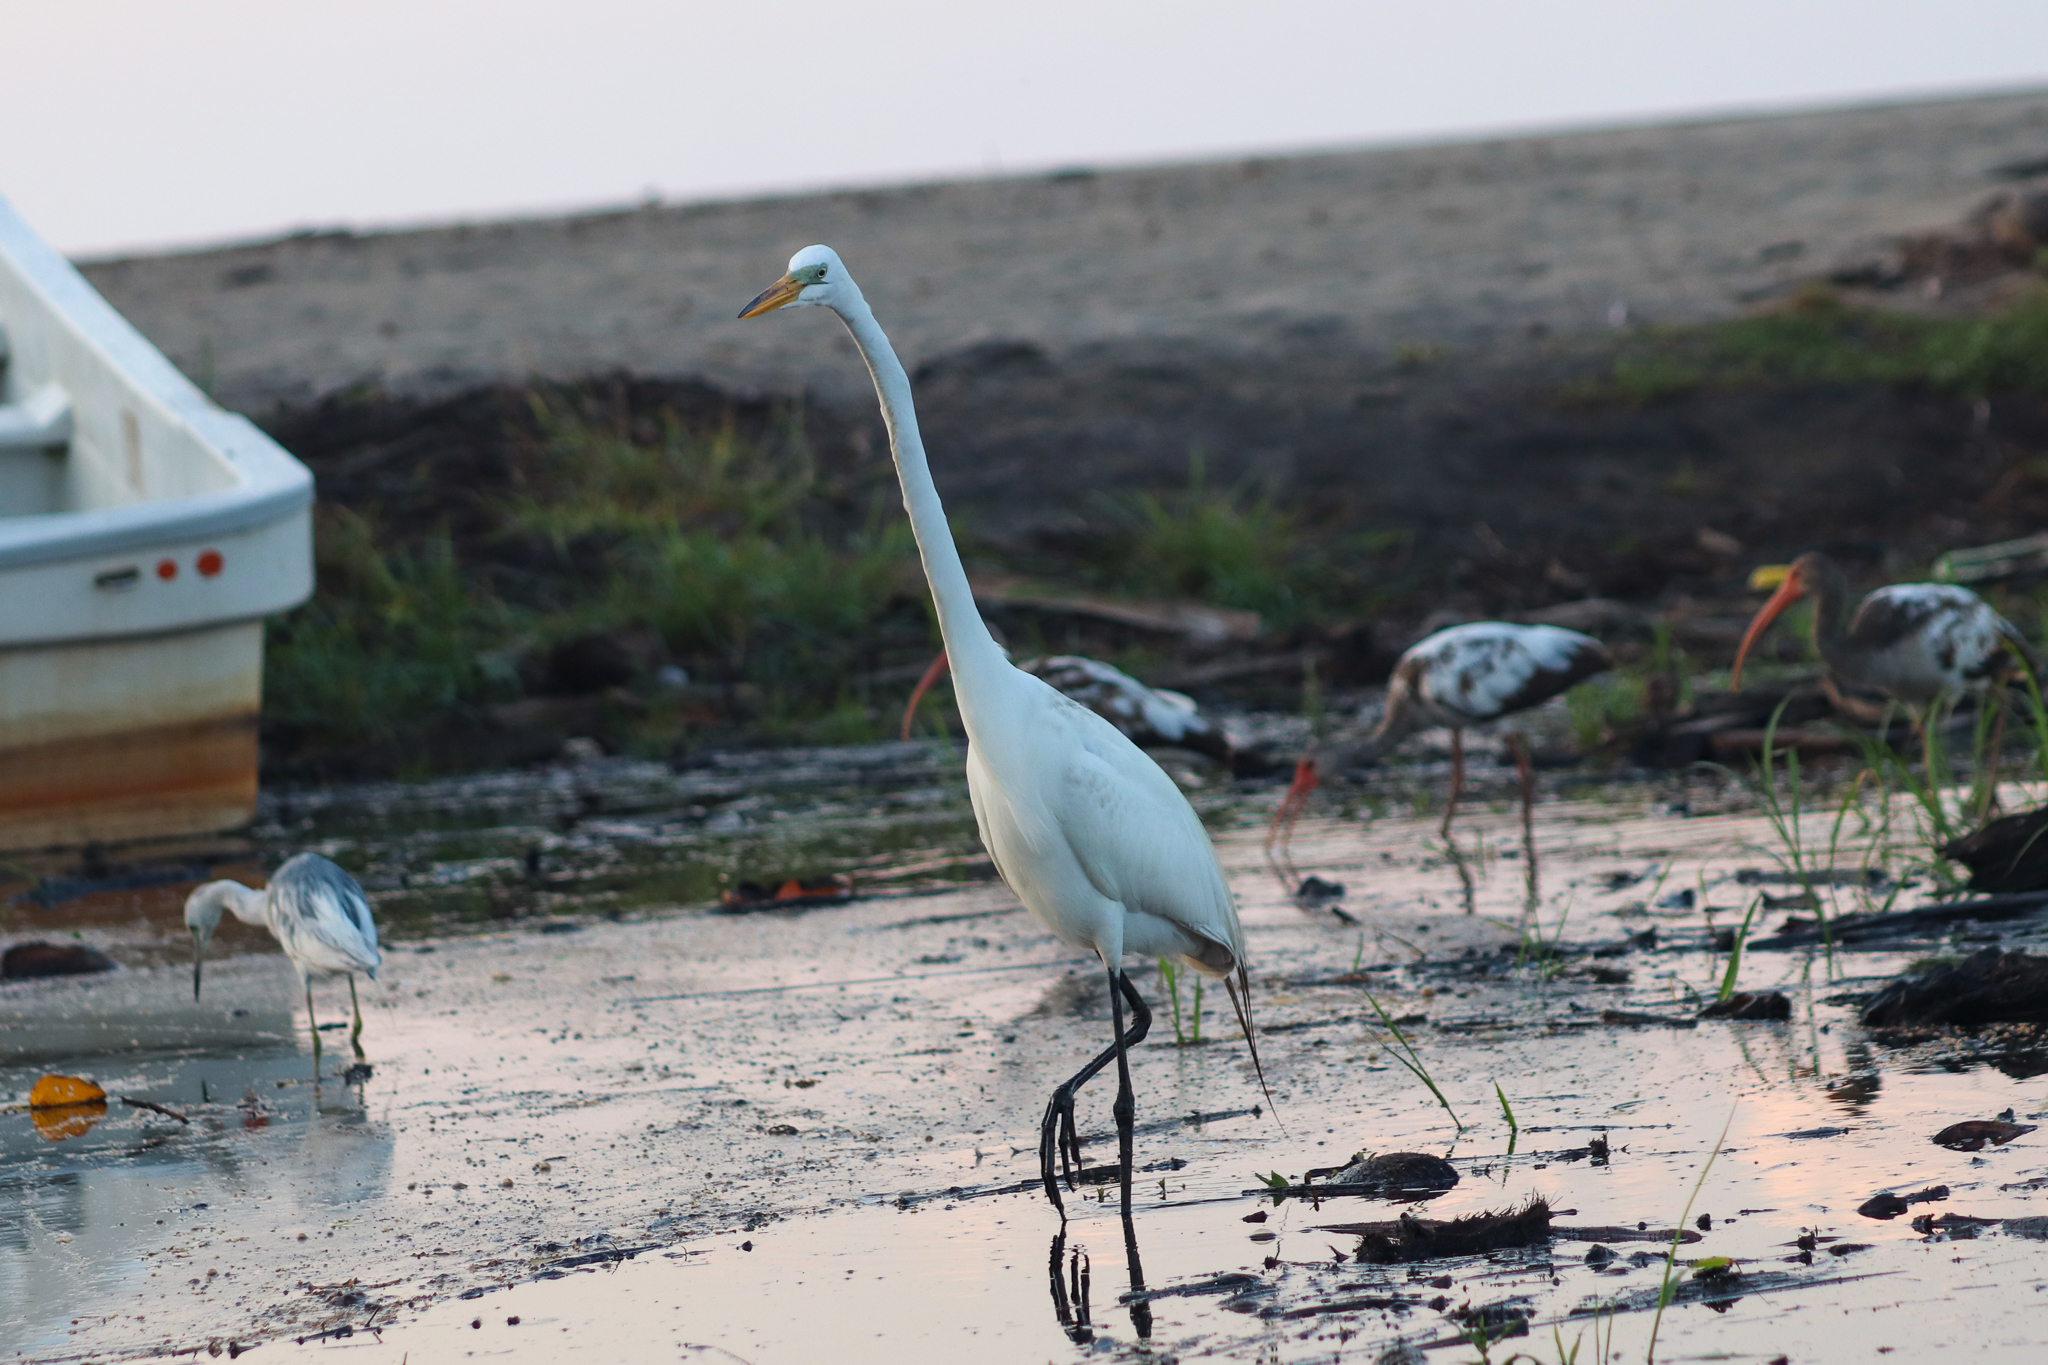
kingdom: Animalia
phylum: Chordata
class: Aves
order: Pelecaniformes
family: Ardeidae
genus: Ardea
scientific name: Ardea alba
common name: Great egret
